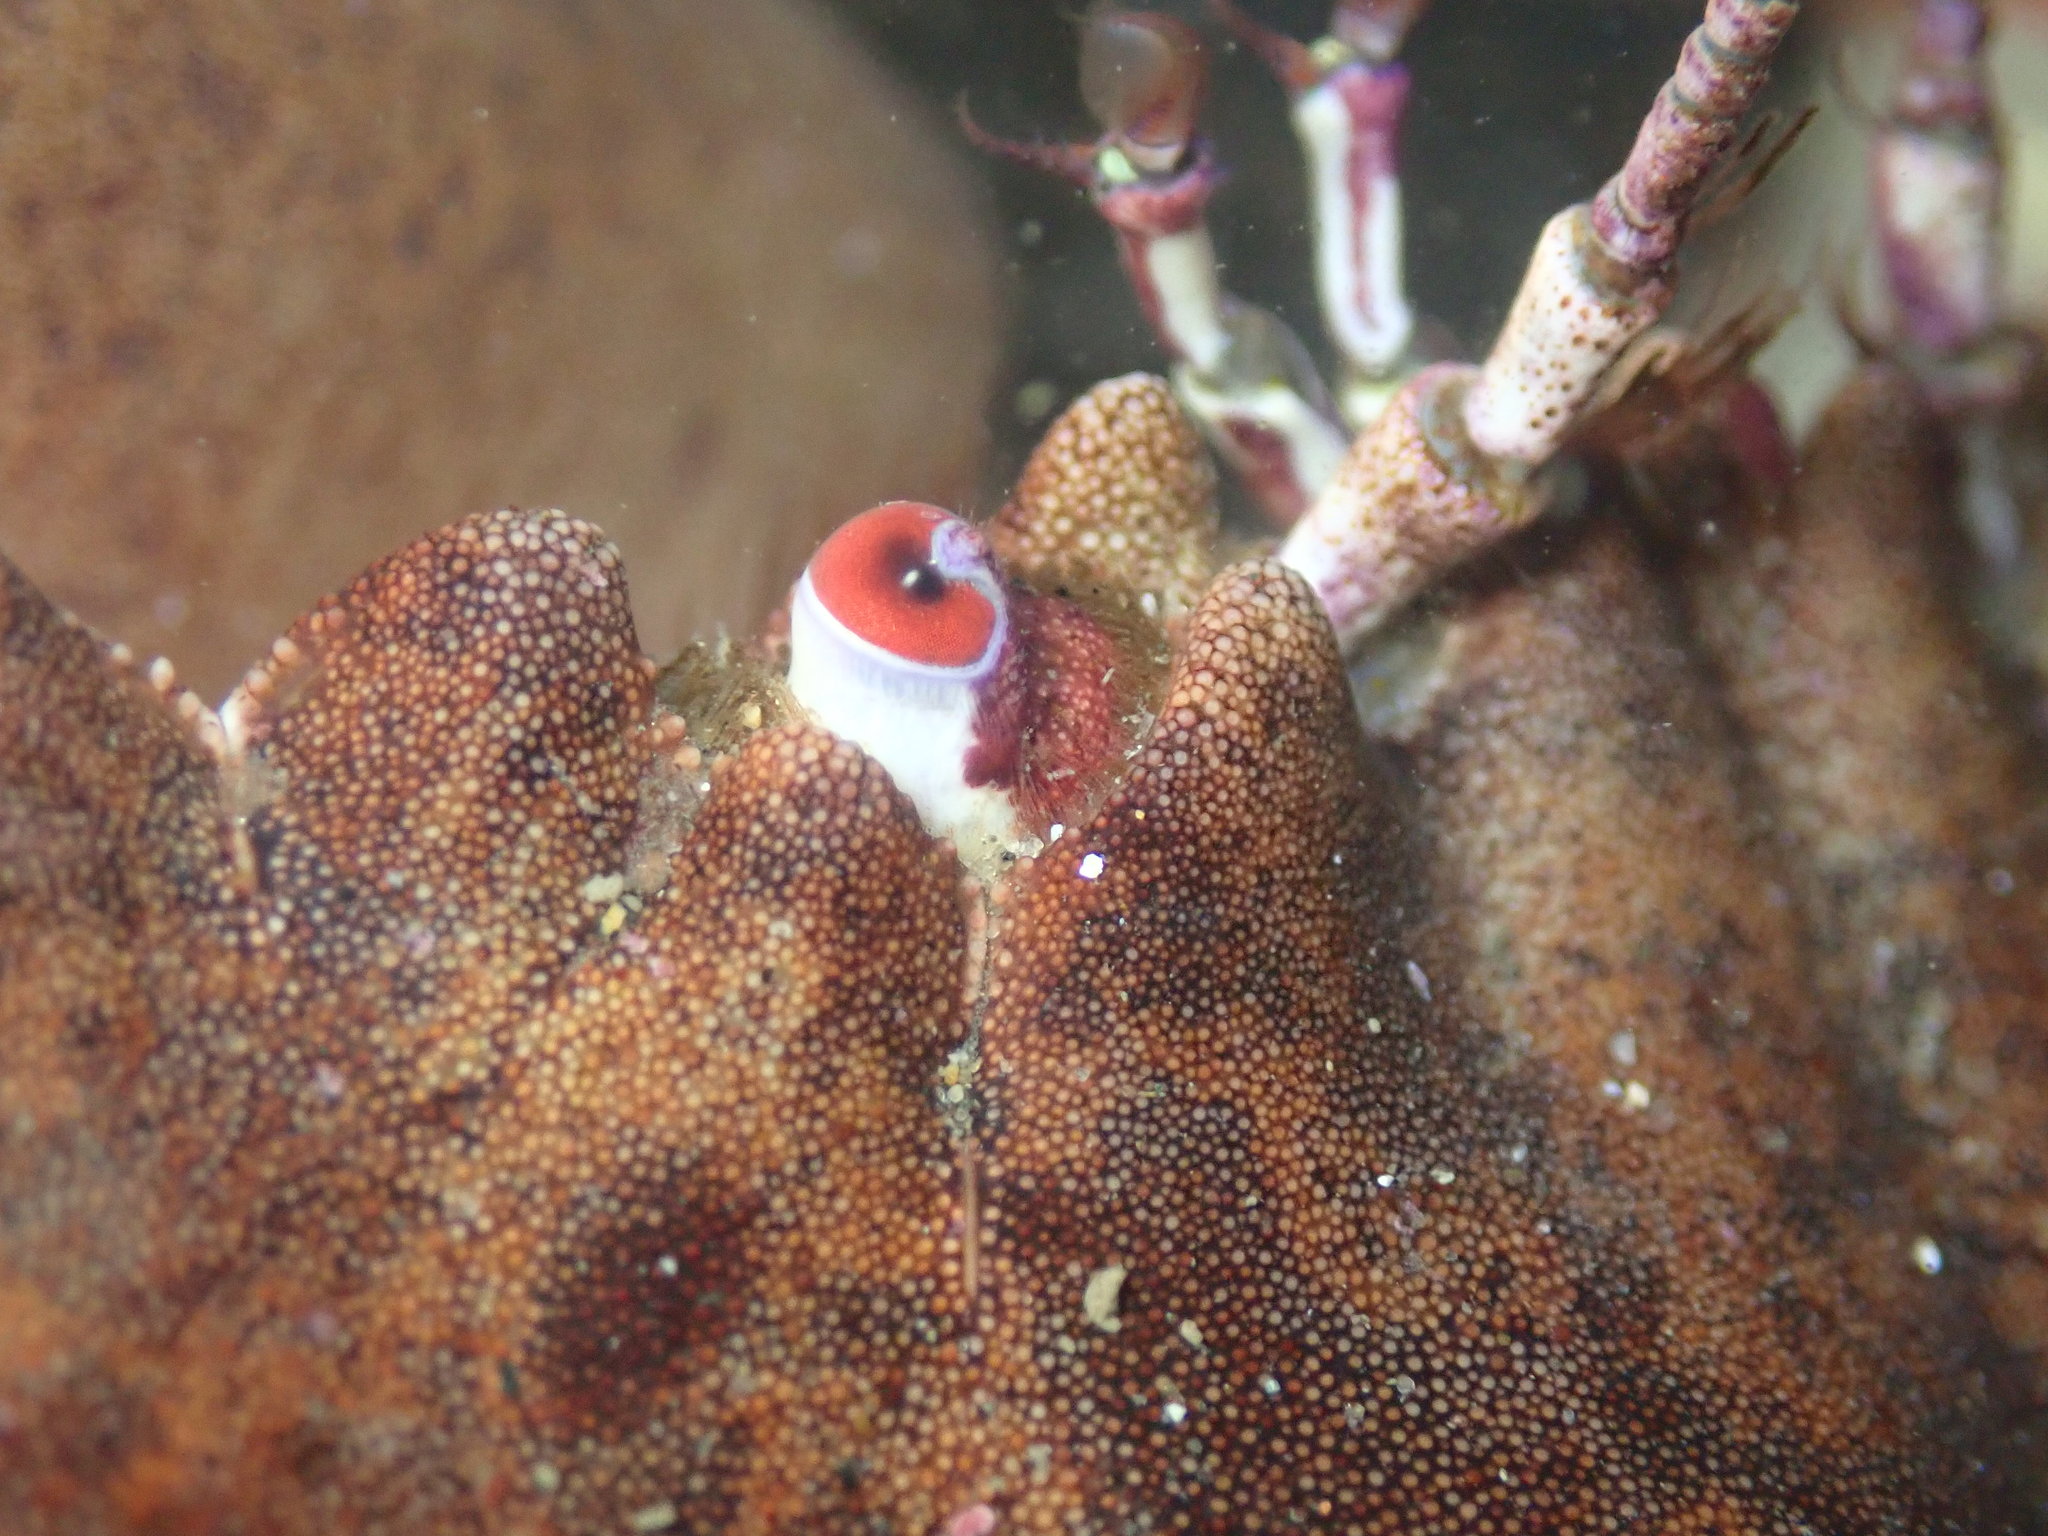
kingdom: Animalia
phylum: Arthropoda
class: Malacostraca
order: Decapoda
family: Cancridae
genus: Romaleon
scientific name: Romaleon antennarium
